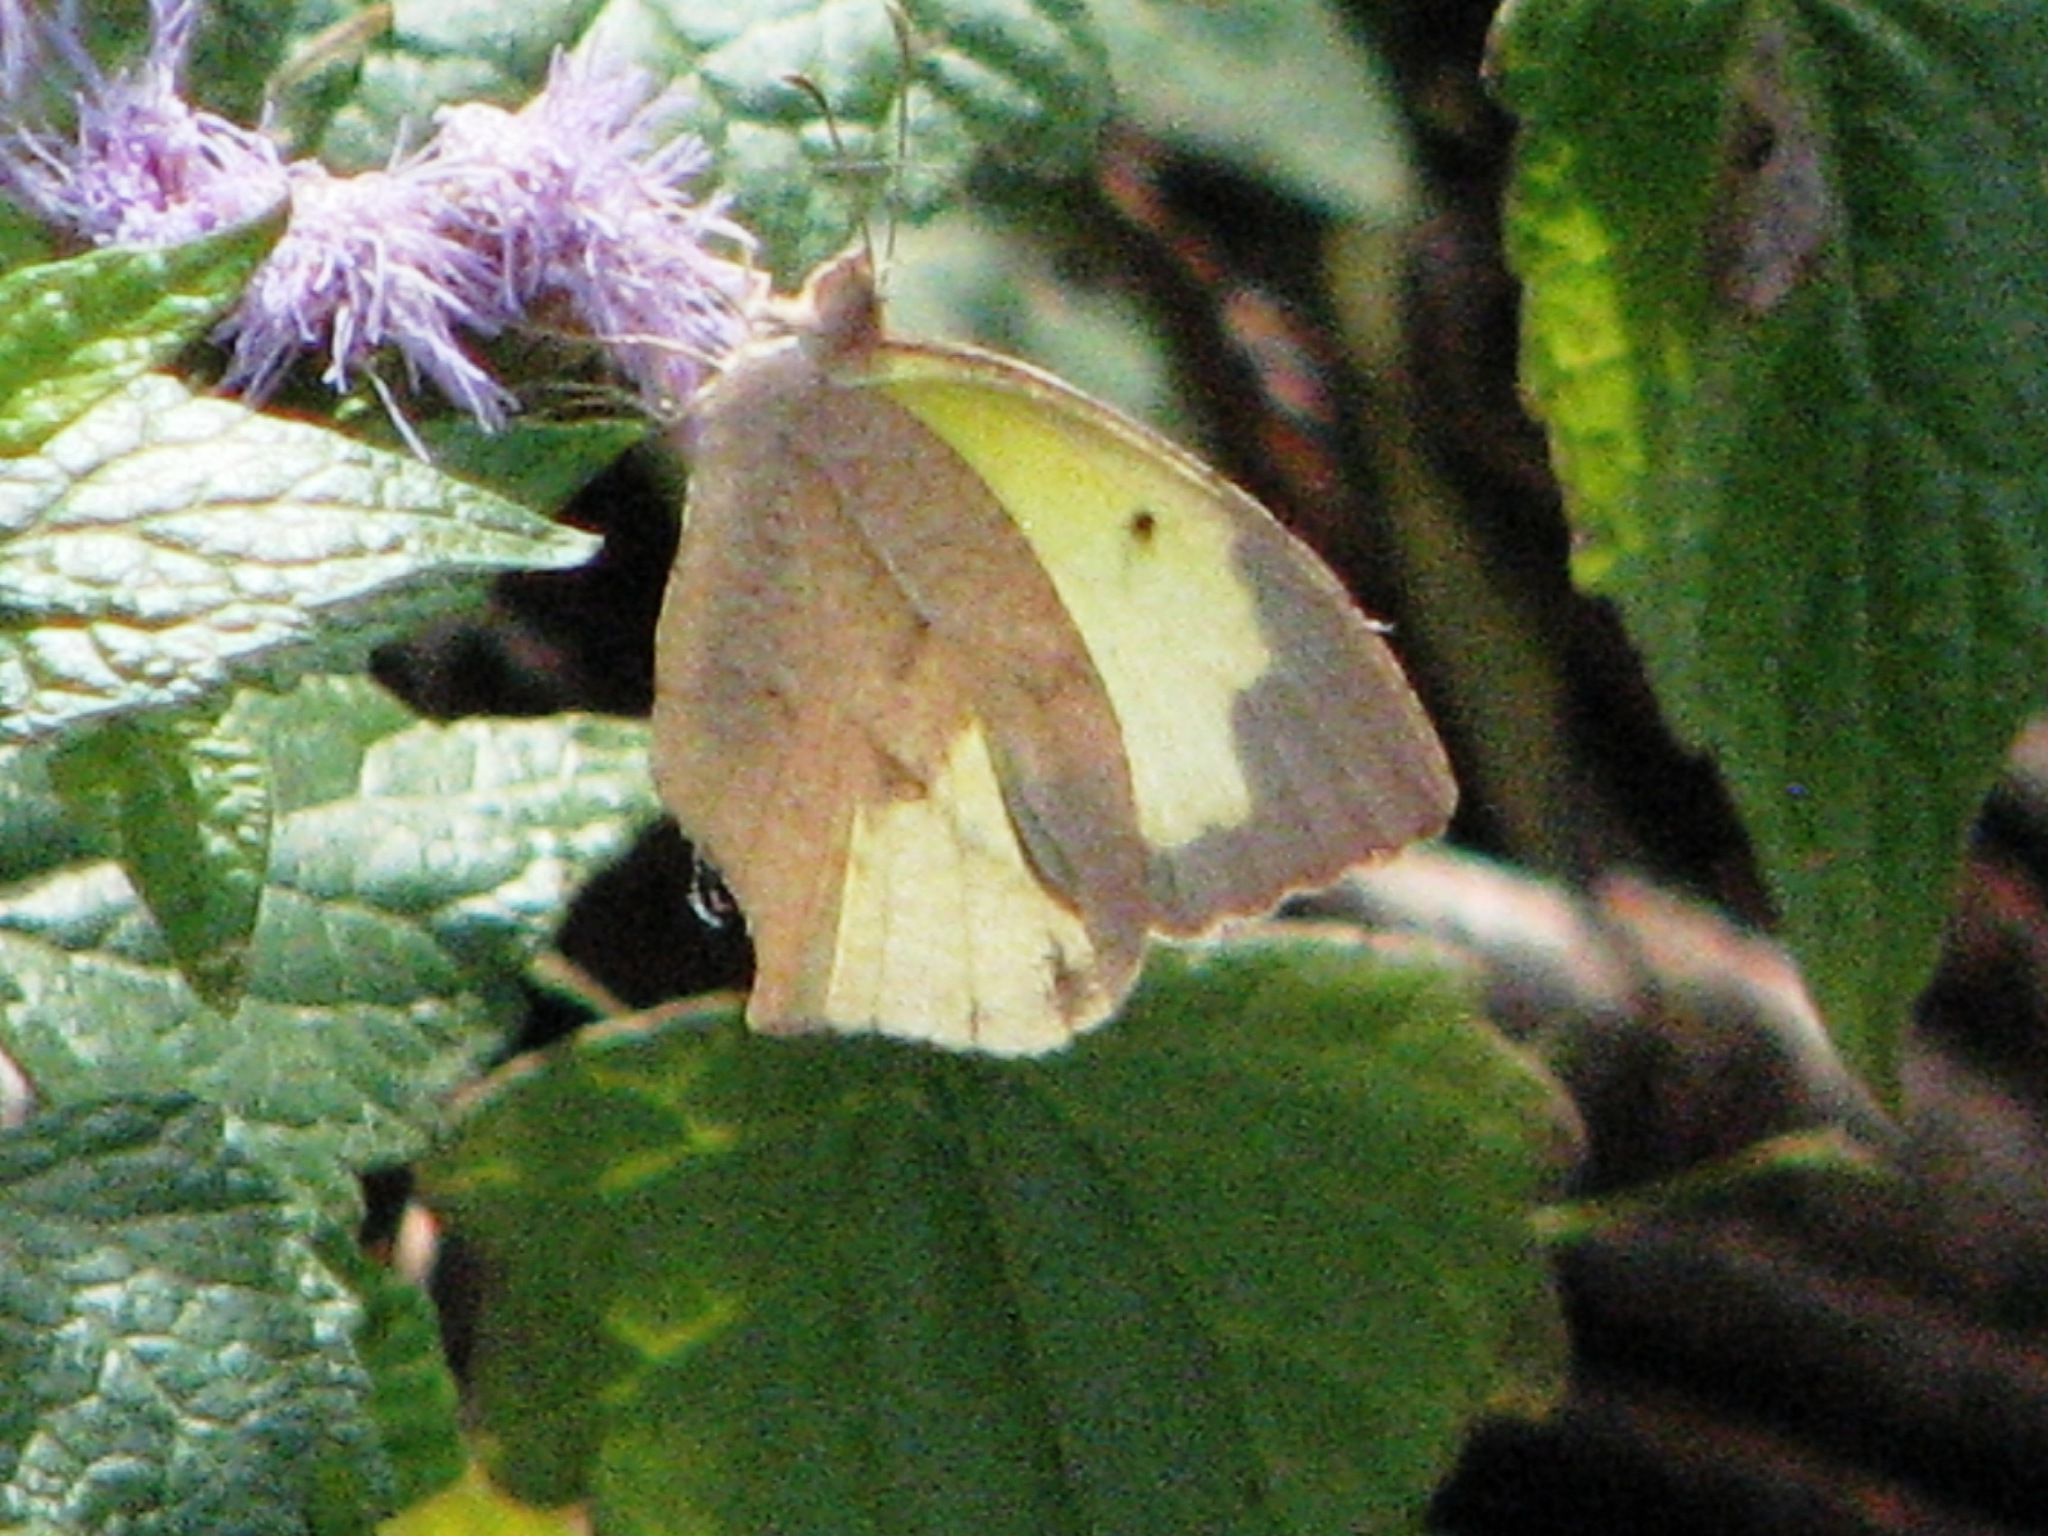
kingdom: Animalia
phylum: Arthropoda
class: Insecta
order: Lepidoptera
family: Pieridae
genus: Abaeis
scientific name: Abaeis mexicana
